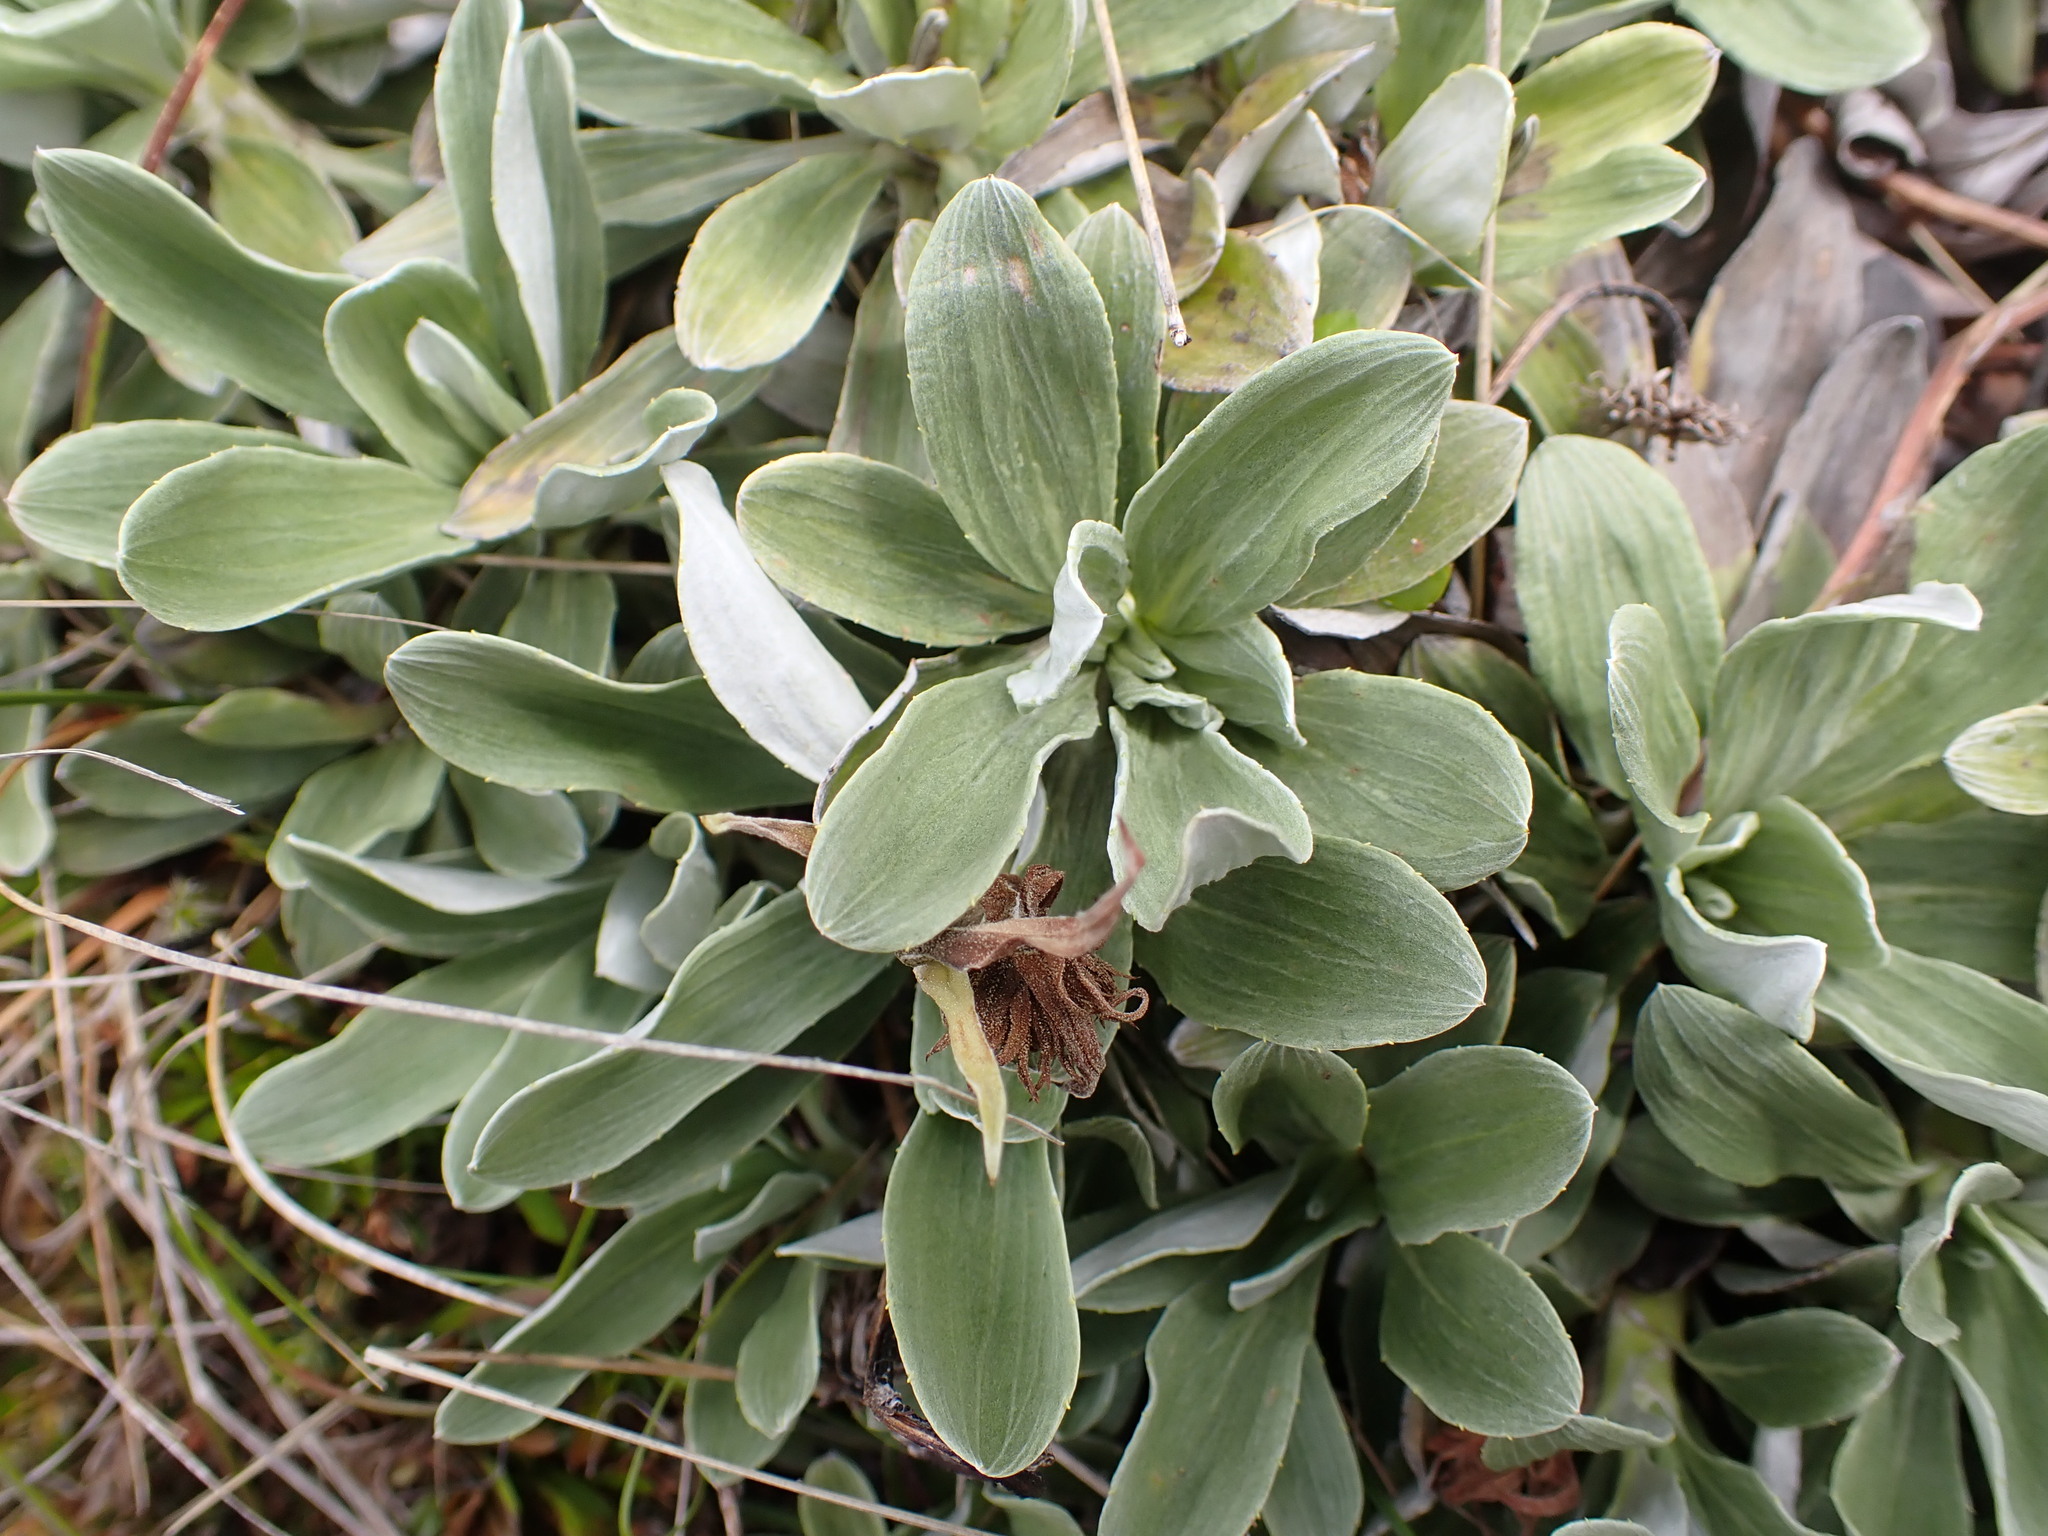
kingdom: Plantae
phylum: Tracheophyta
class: Magnoliopsida
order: Asterales
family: Asteraceae
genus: Celmisia
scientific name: Celmisia discolor
